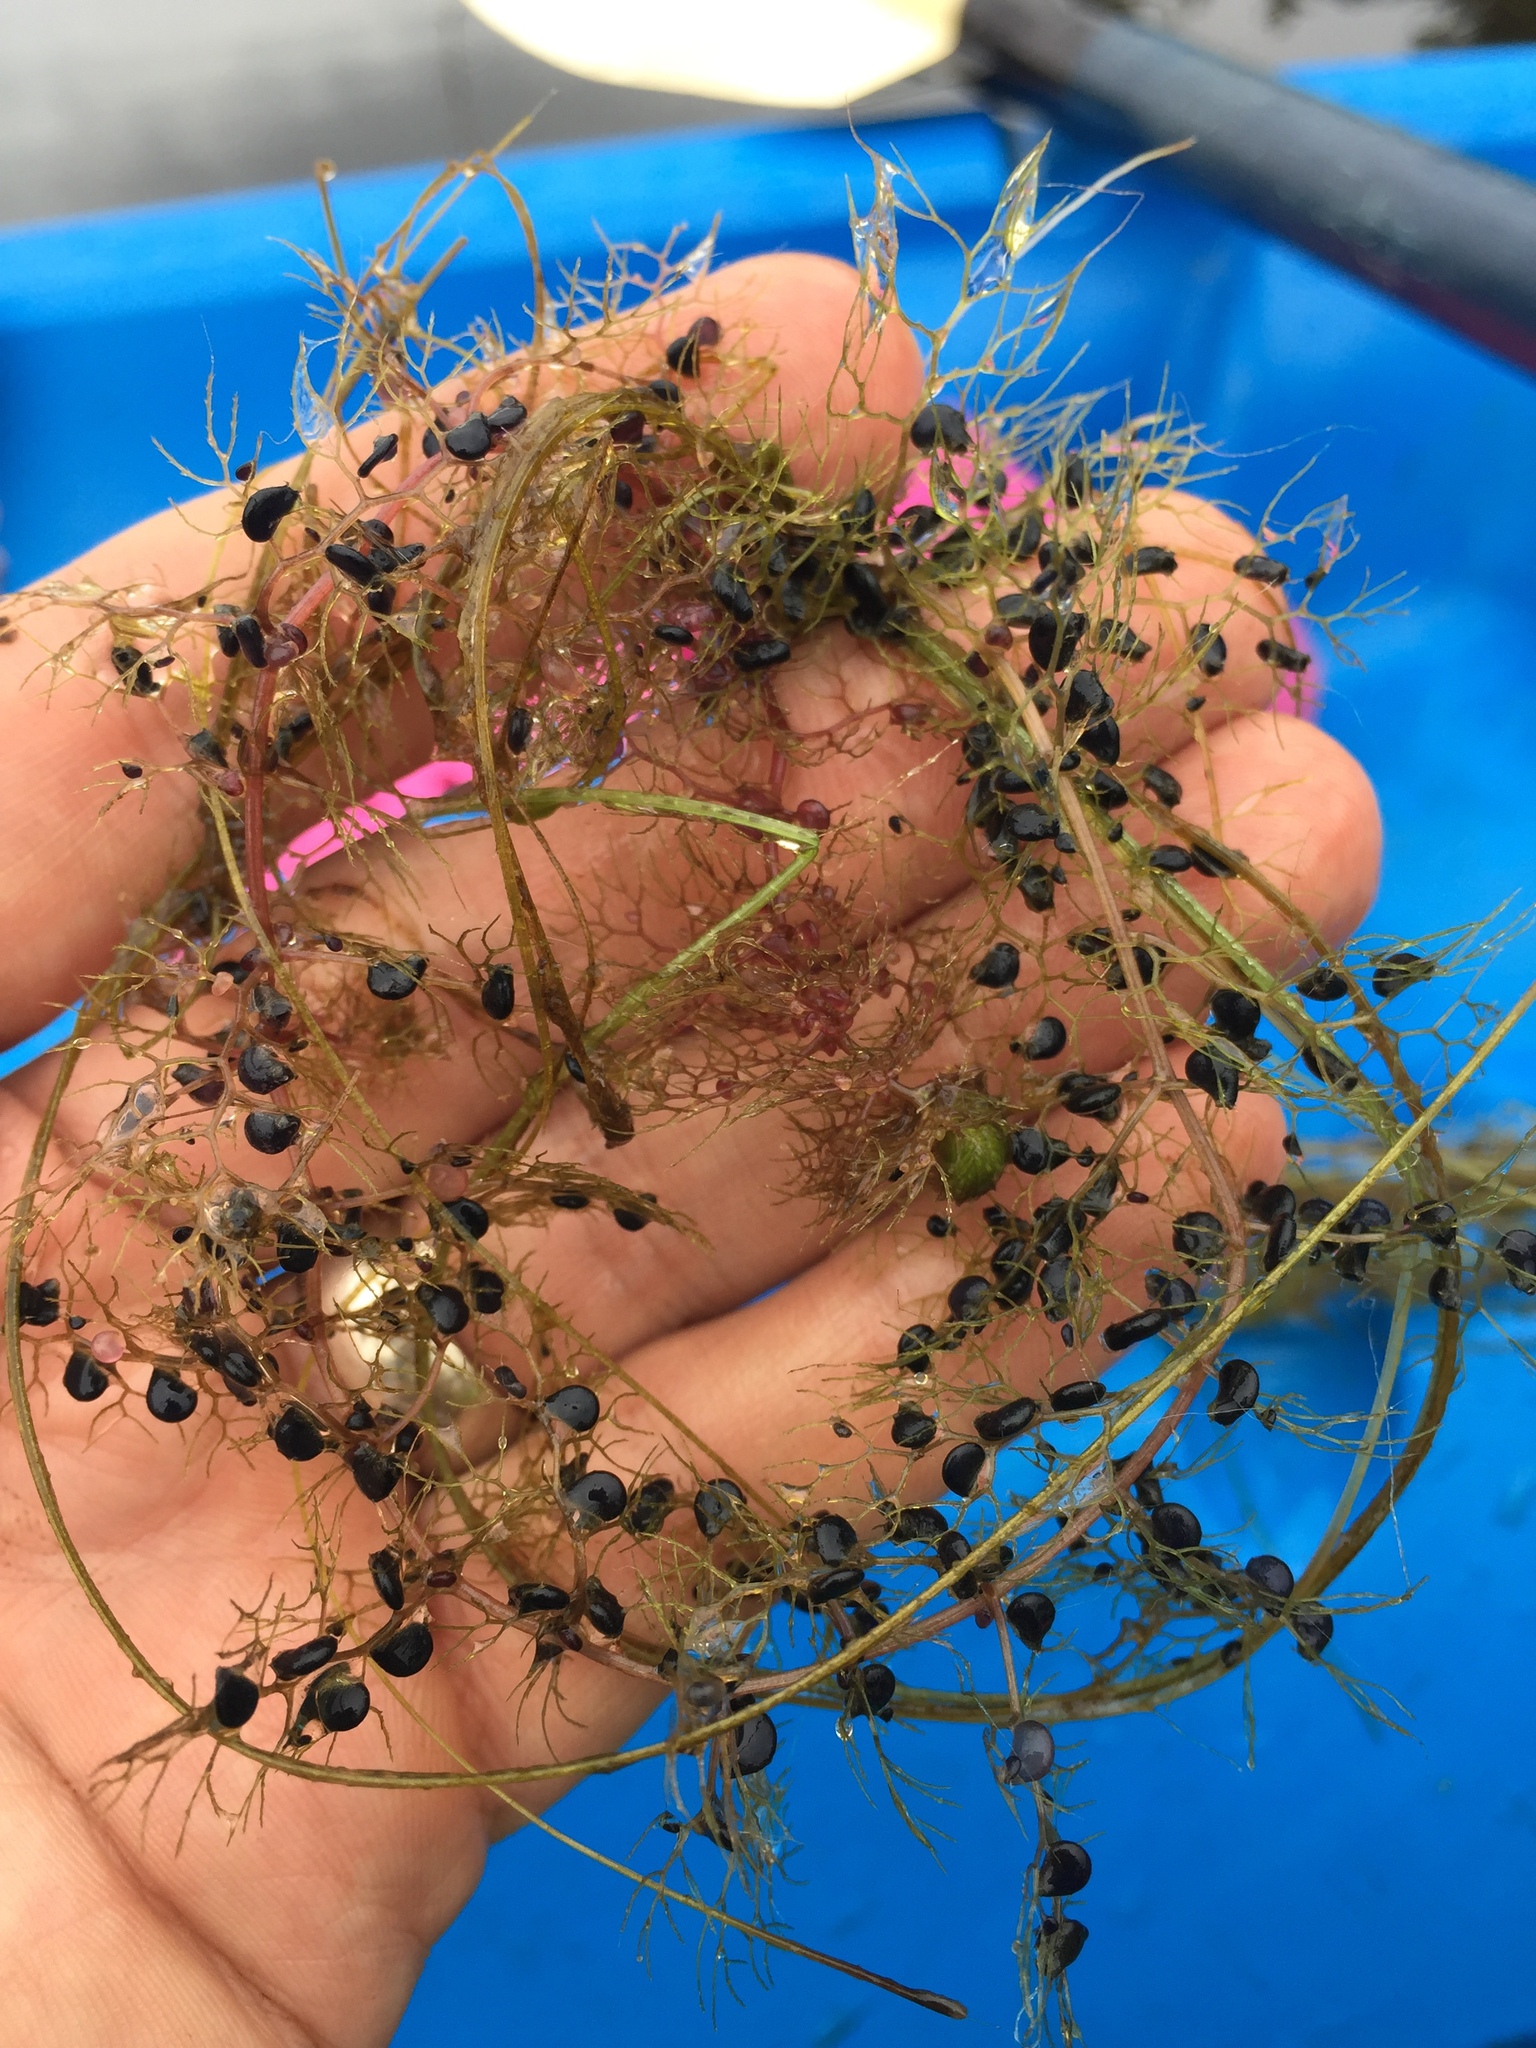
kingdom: Plantae
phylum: Tracheophyta
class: Magnoliopsida
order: Lamiales
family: Lentibulariaceae
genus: Utricularia
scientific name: Utricularia macrorhiza
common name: Common bladderwort
